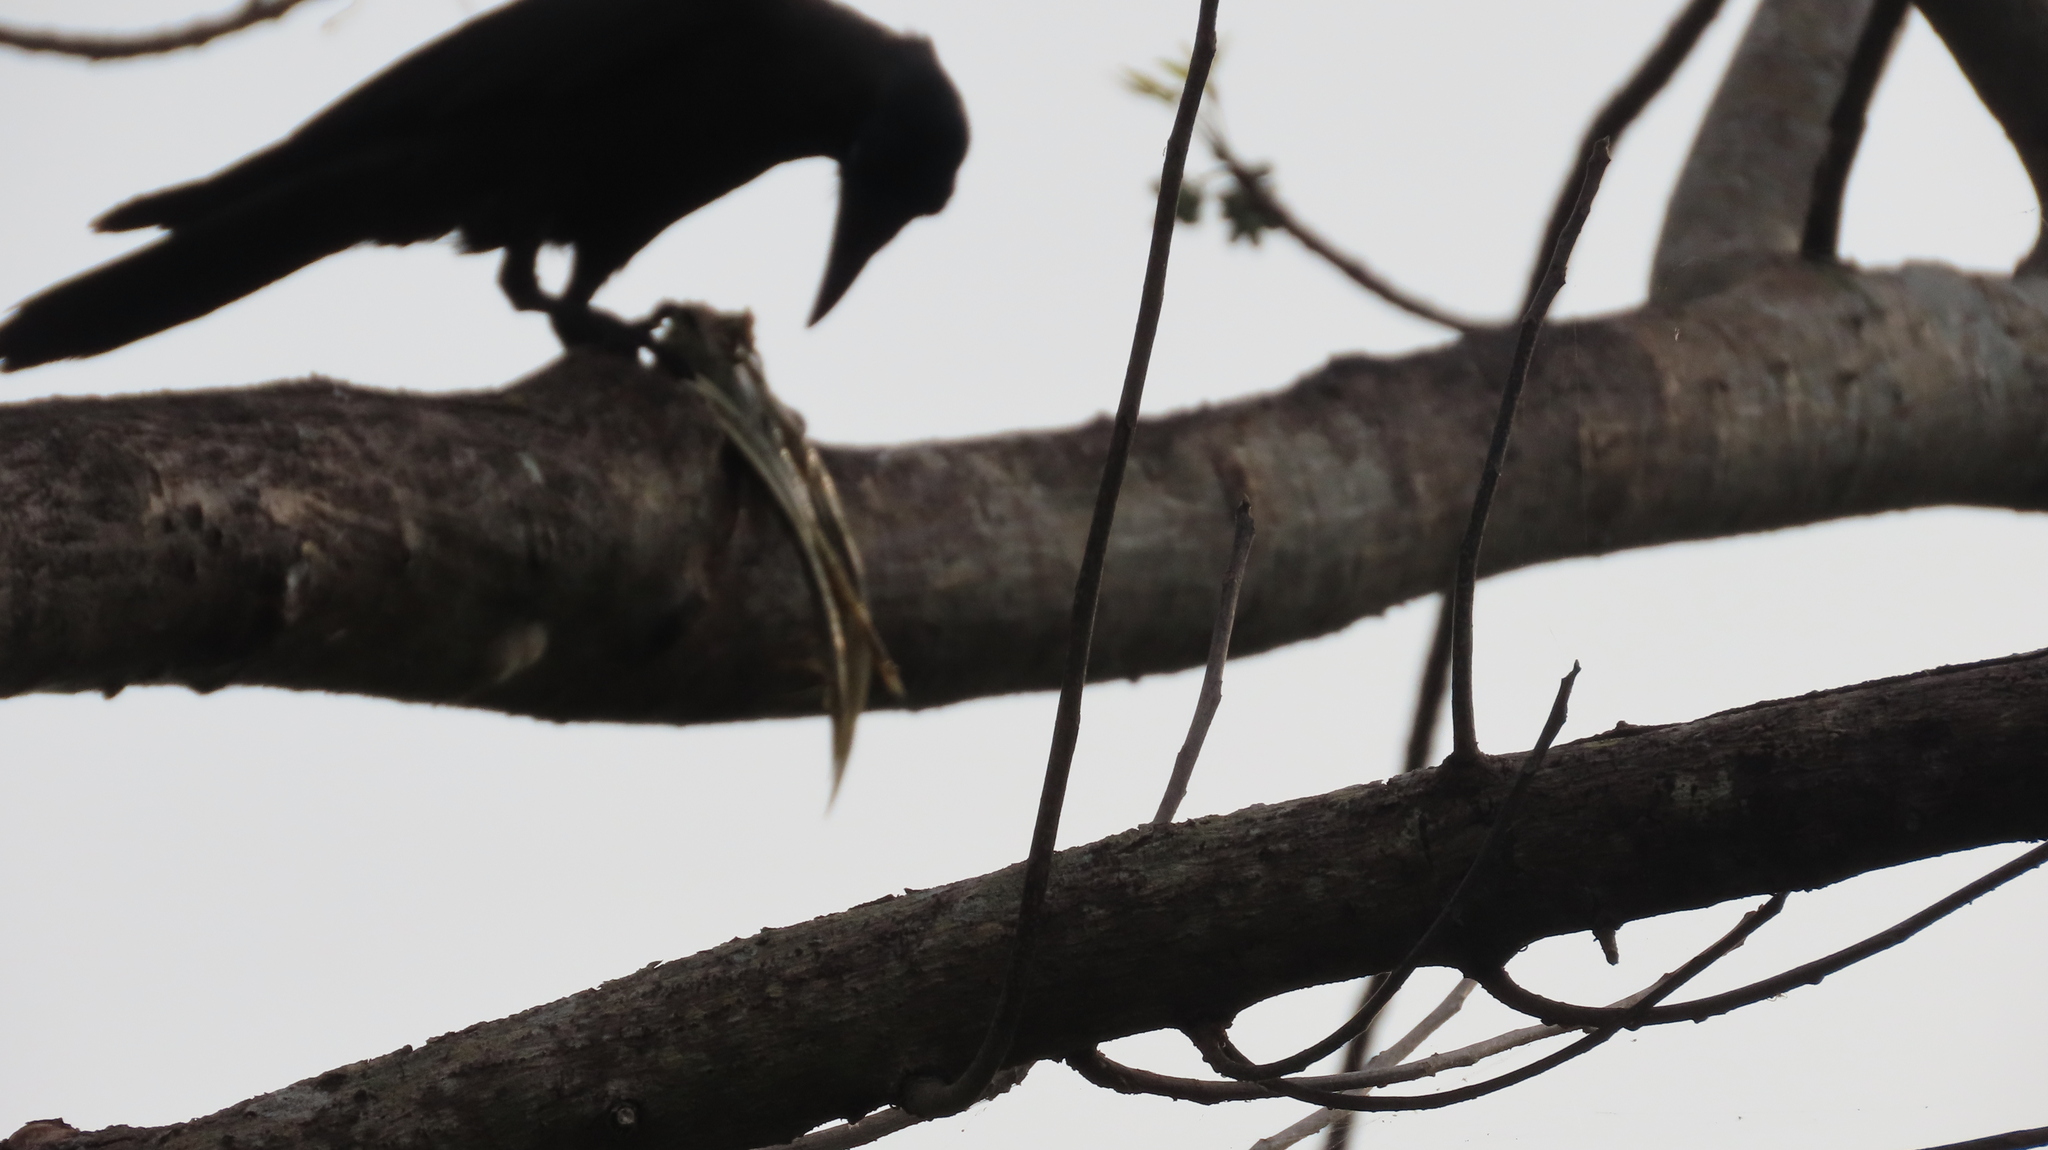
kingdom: Animalia
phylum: Chordata
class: Aves
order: Passeriformes
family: Corvidae
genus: Corvus
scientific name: Corvus splendens
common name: House crow
